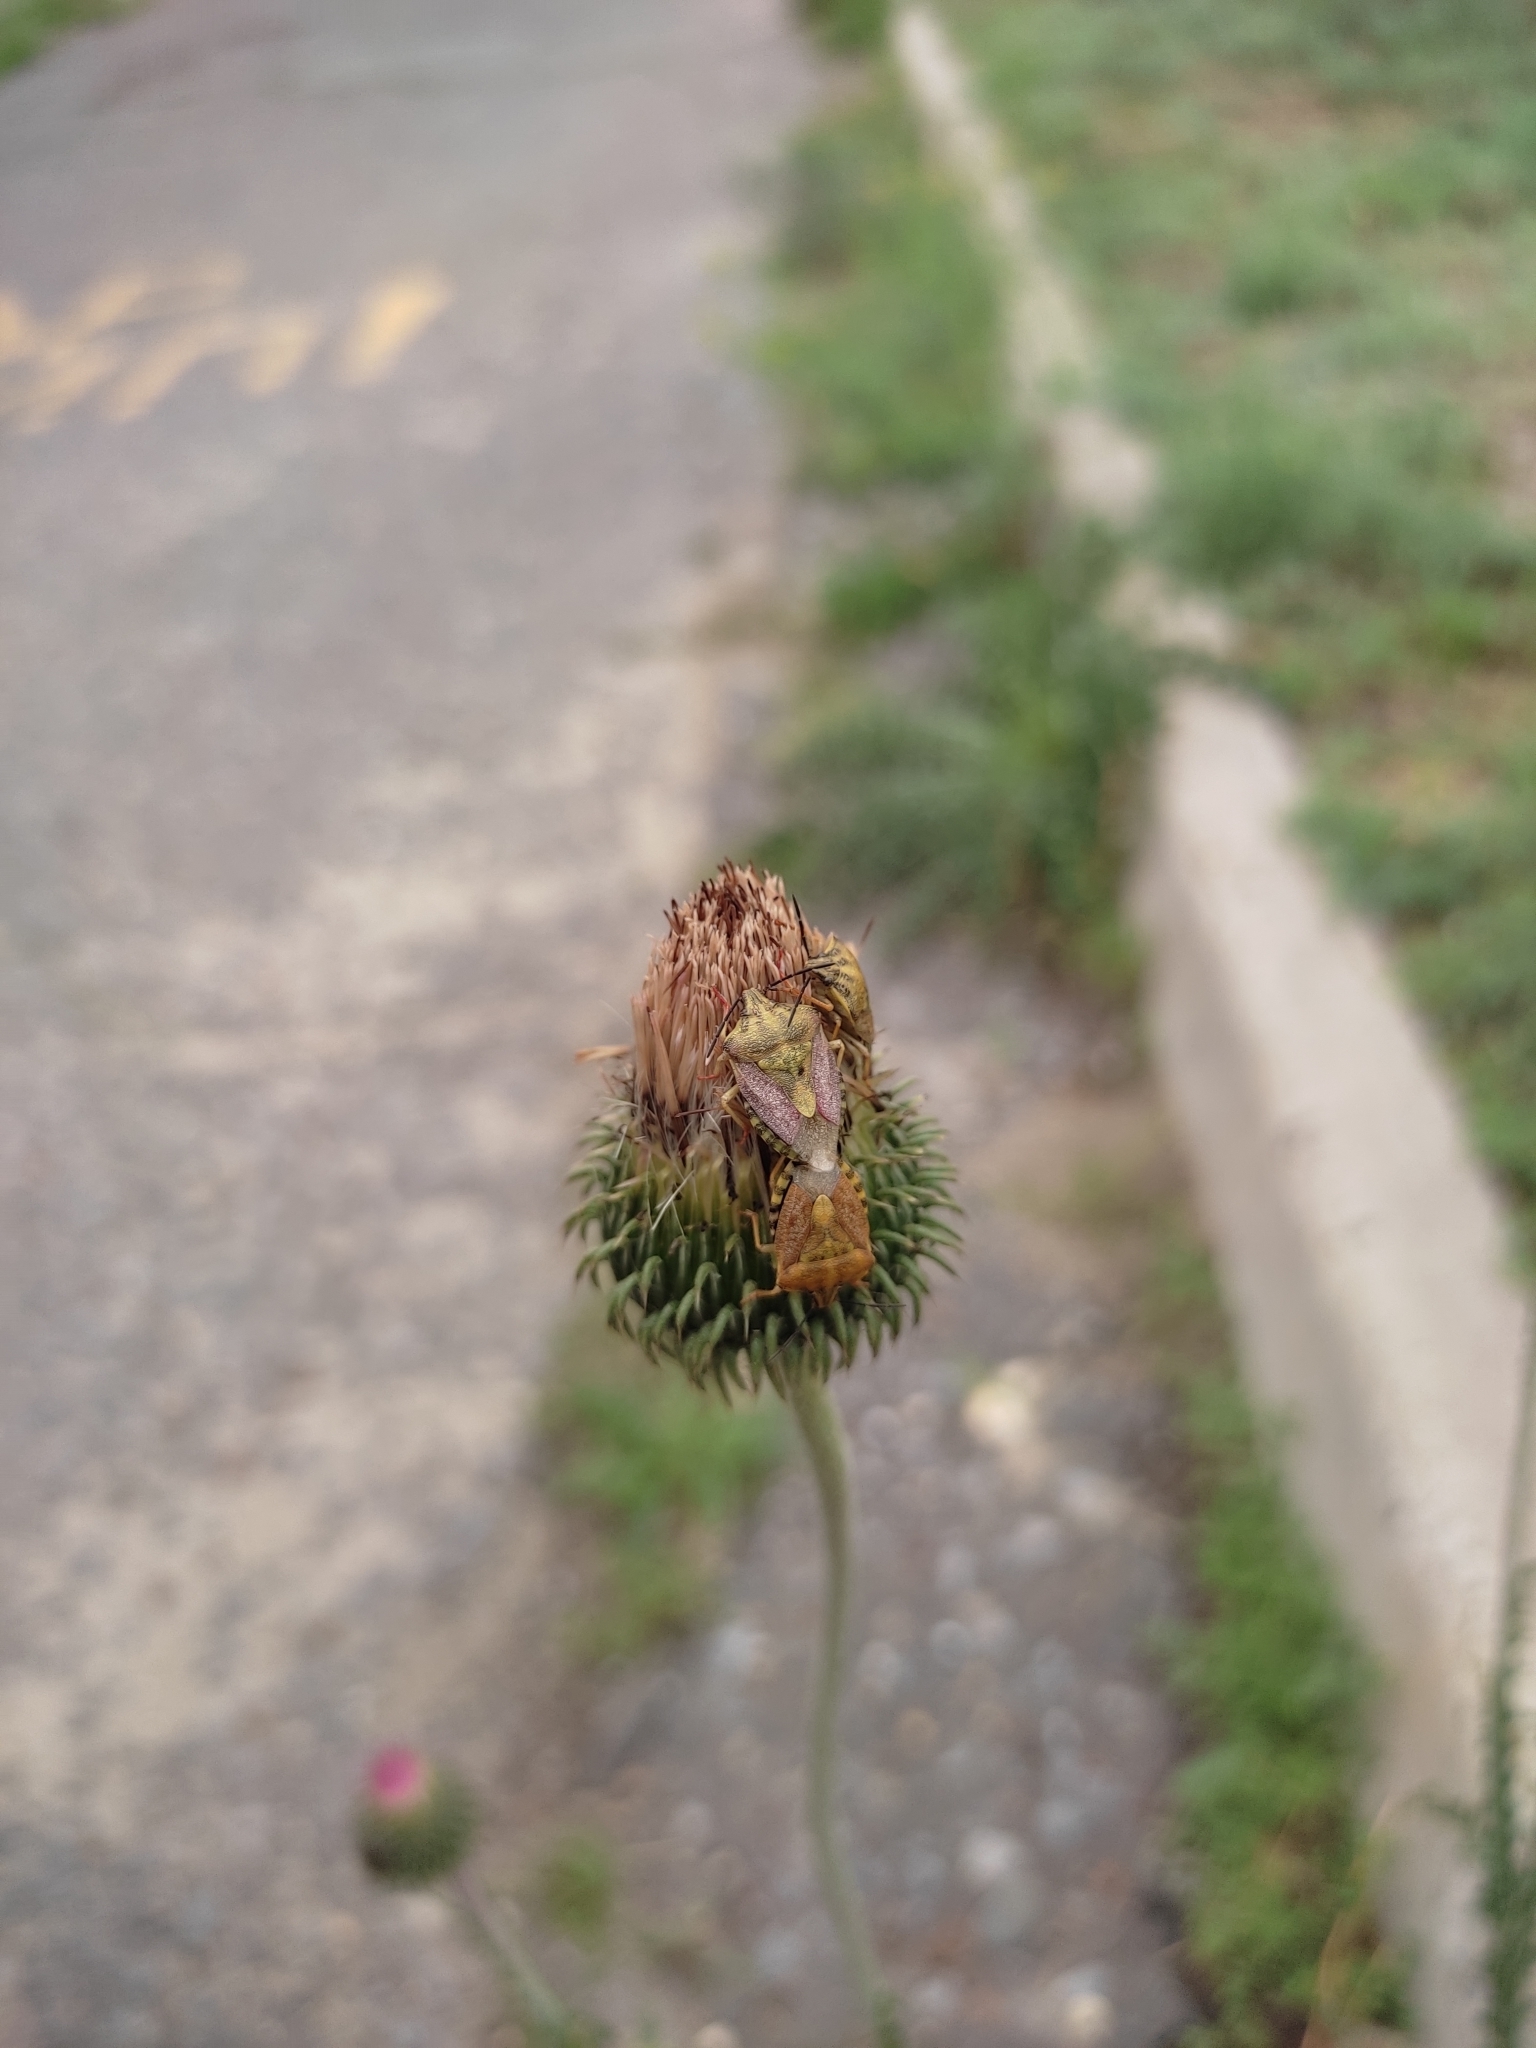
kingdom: Animalia
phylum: Arthropoda
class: Insecta
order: Hemiptera
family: Pentatomidae
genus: Carpocoris
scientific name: Carpocoris purpureipennis
